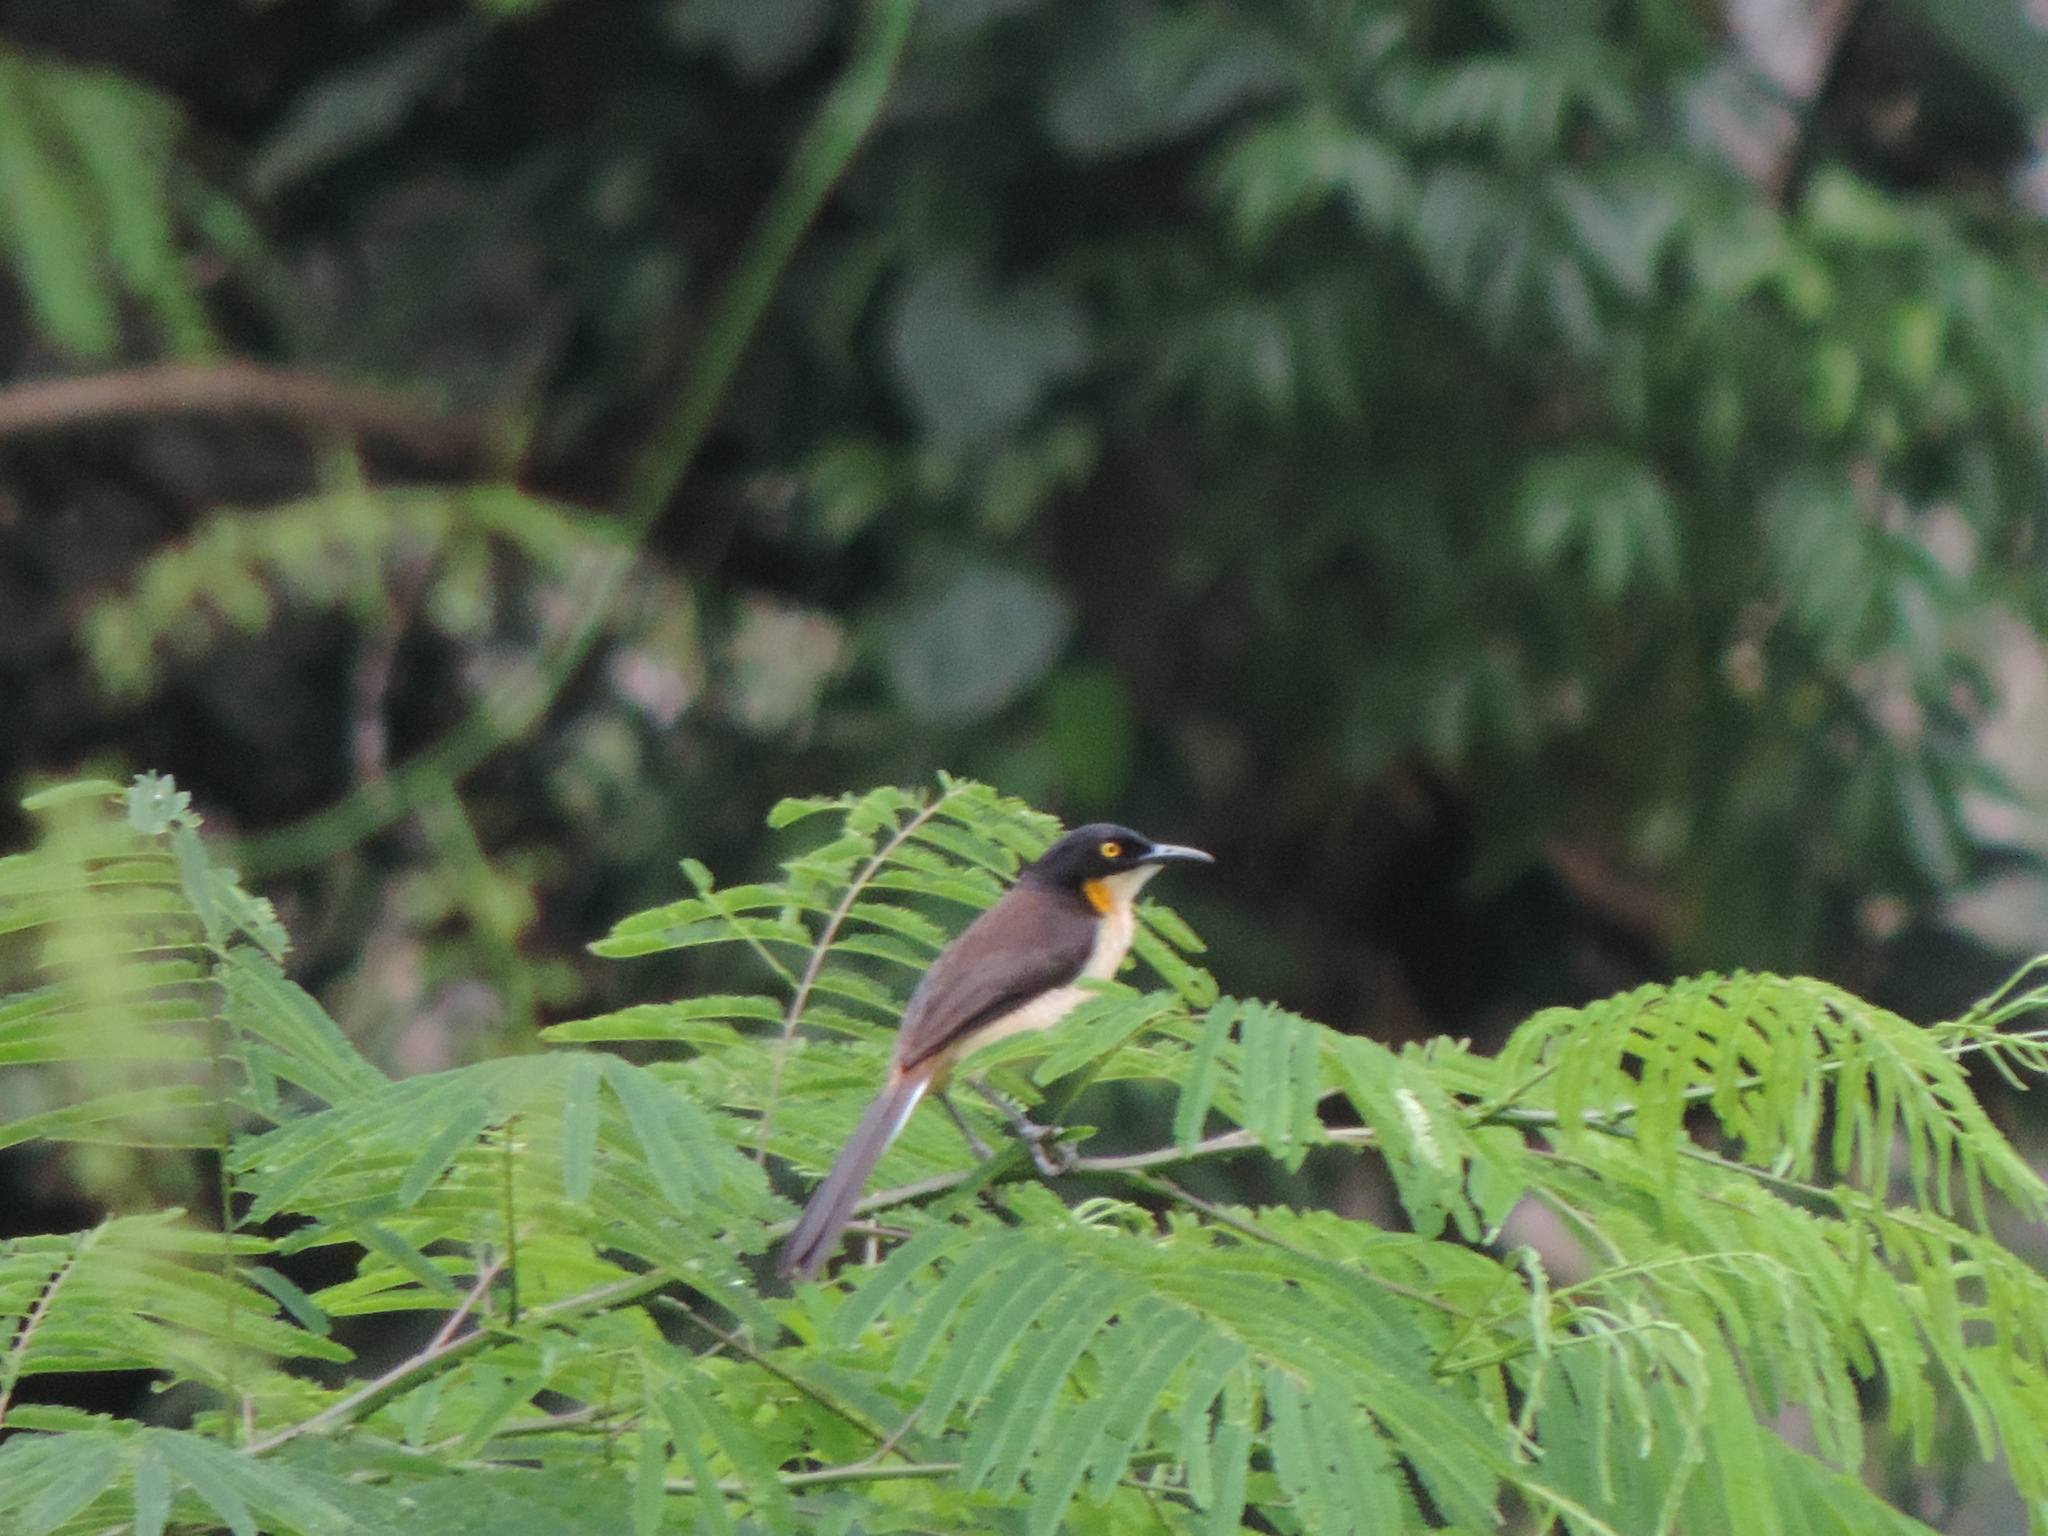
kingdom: Animalia
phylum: Chordata
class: Aves
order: Passeriformes
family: Donacobiidae
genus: Donacobius
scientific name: Donacobius atricapilla
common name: Black-capped donacobius
